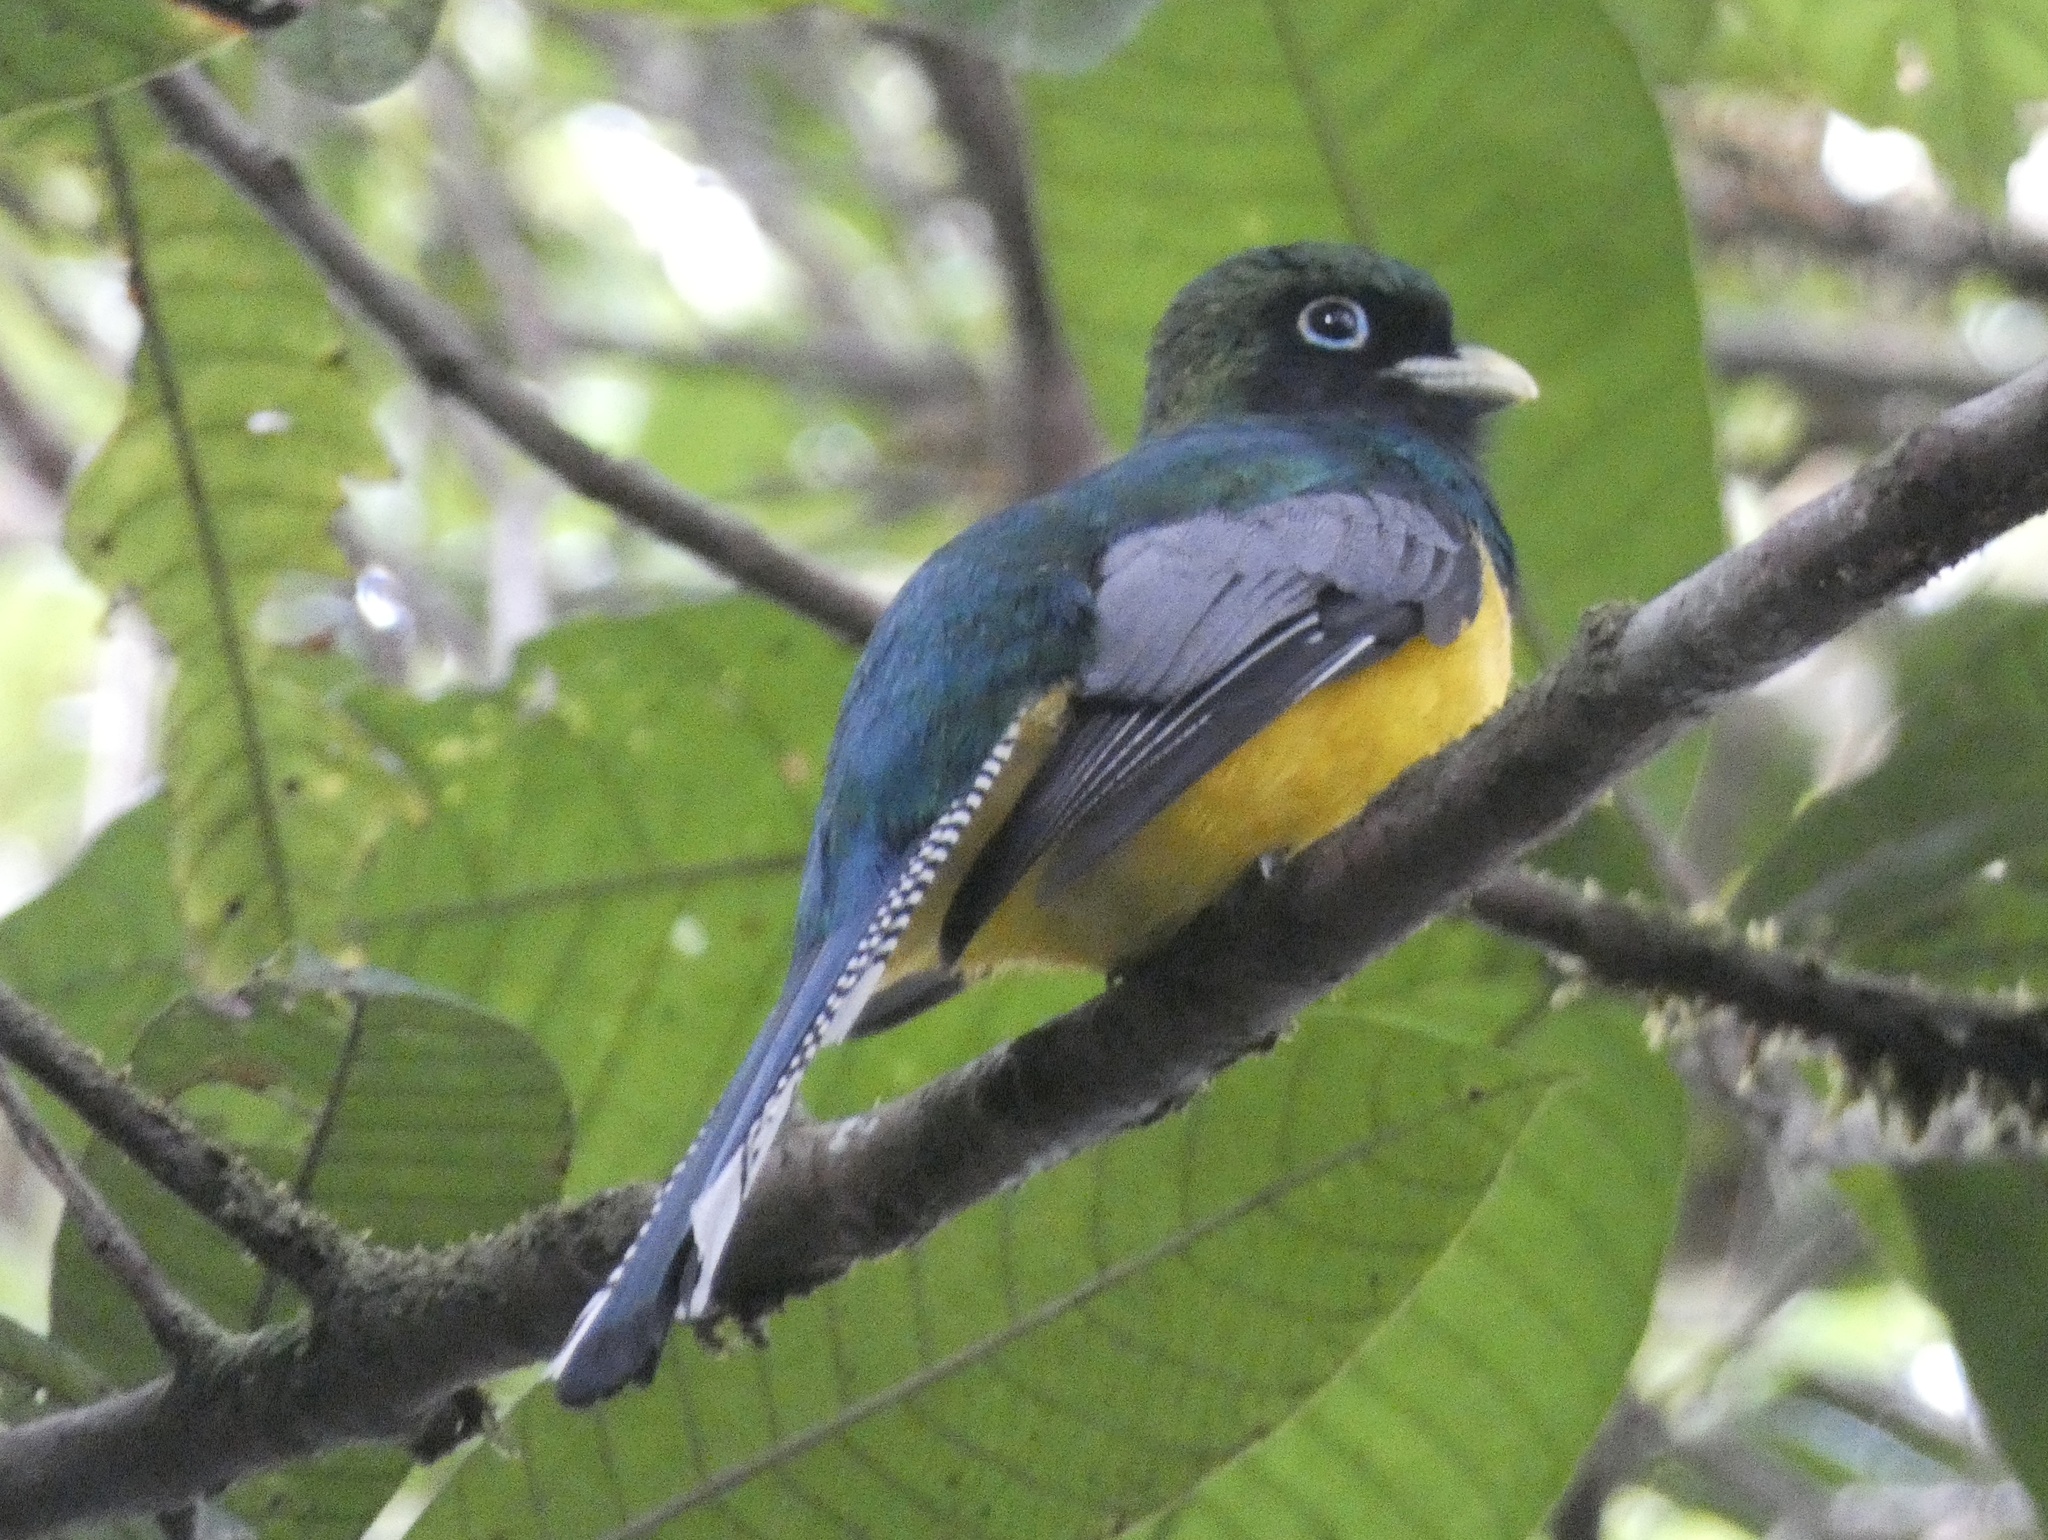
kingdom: Animalia
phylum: Chordata
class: Aves
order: Trogoniformes
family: Trogonidae
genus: Trogon
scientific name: Trogon rufus
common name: Black-throated trogon
